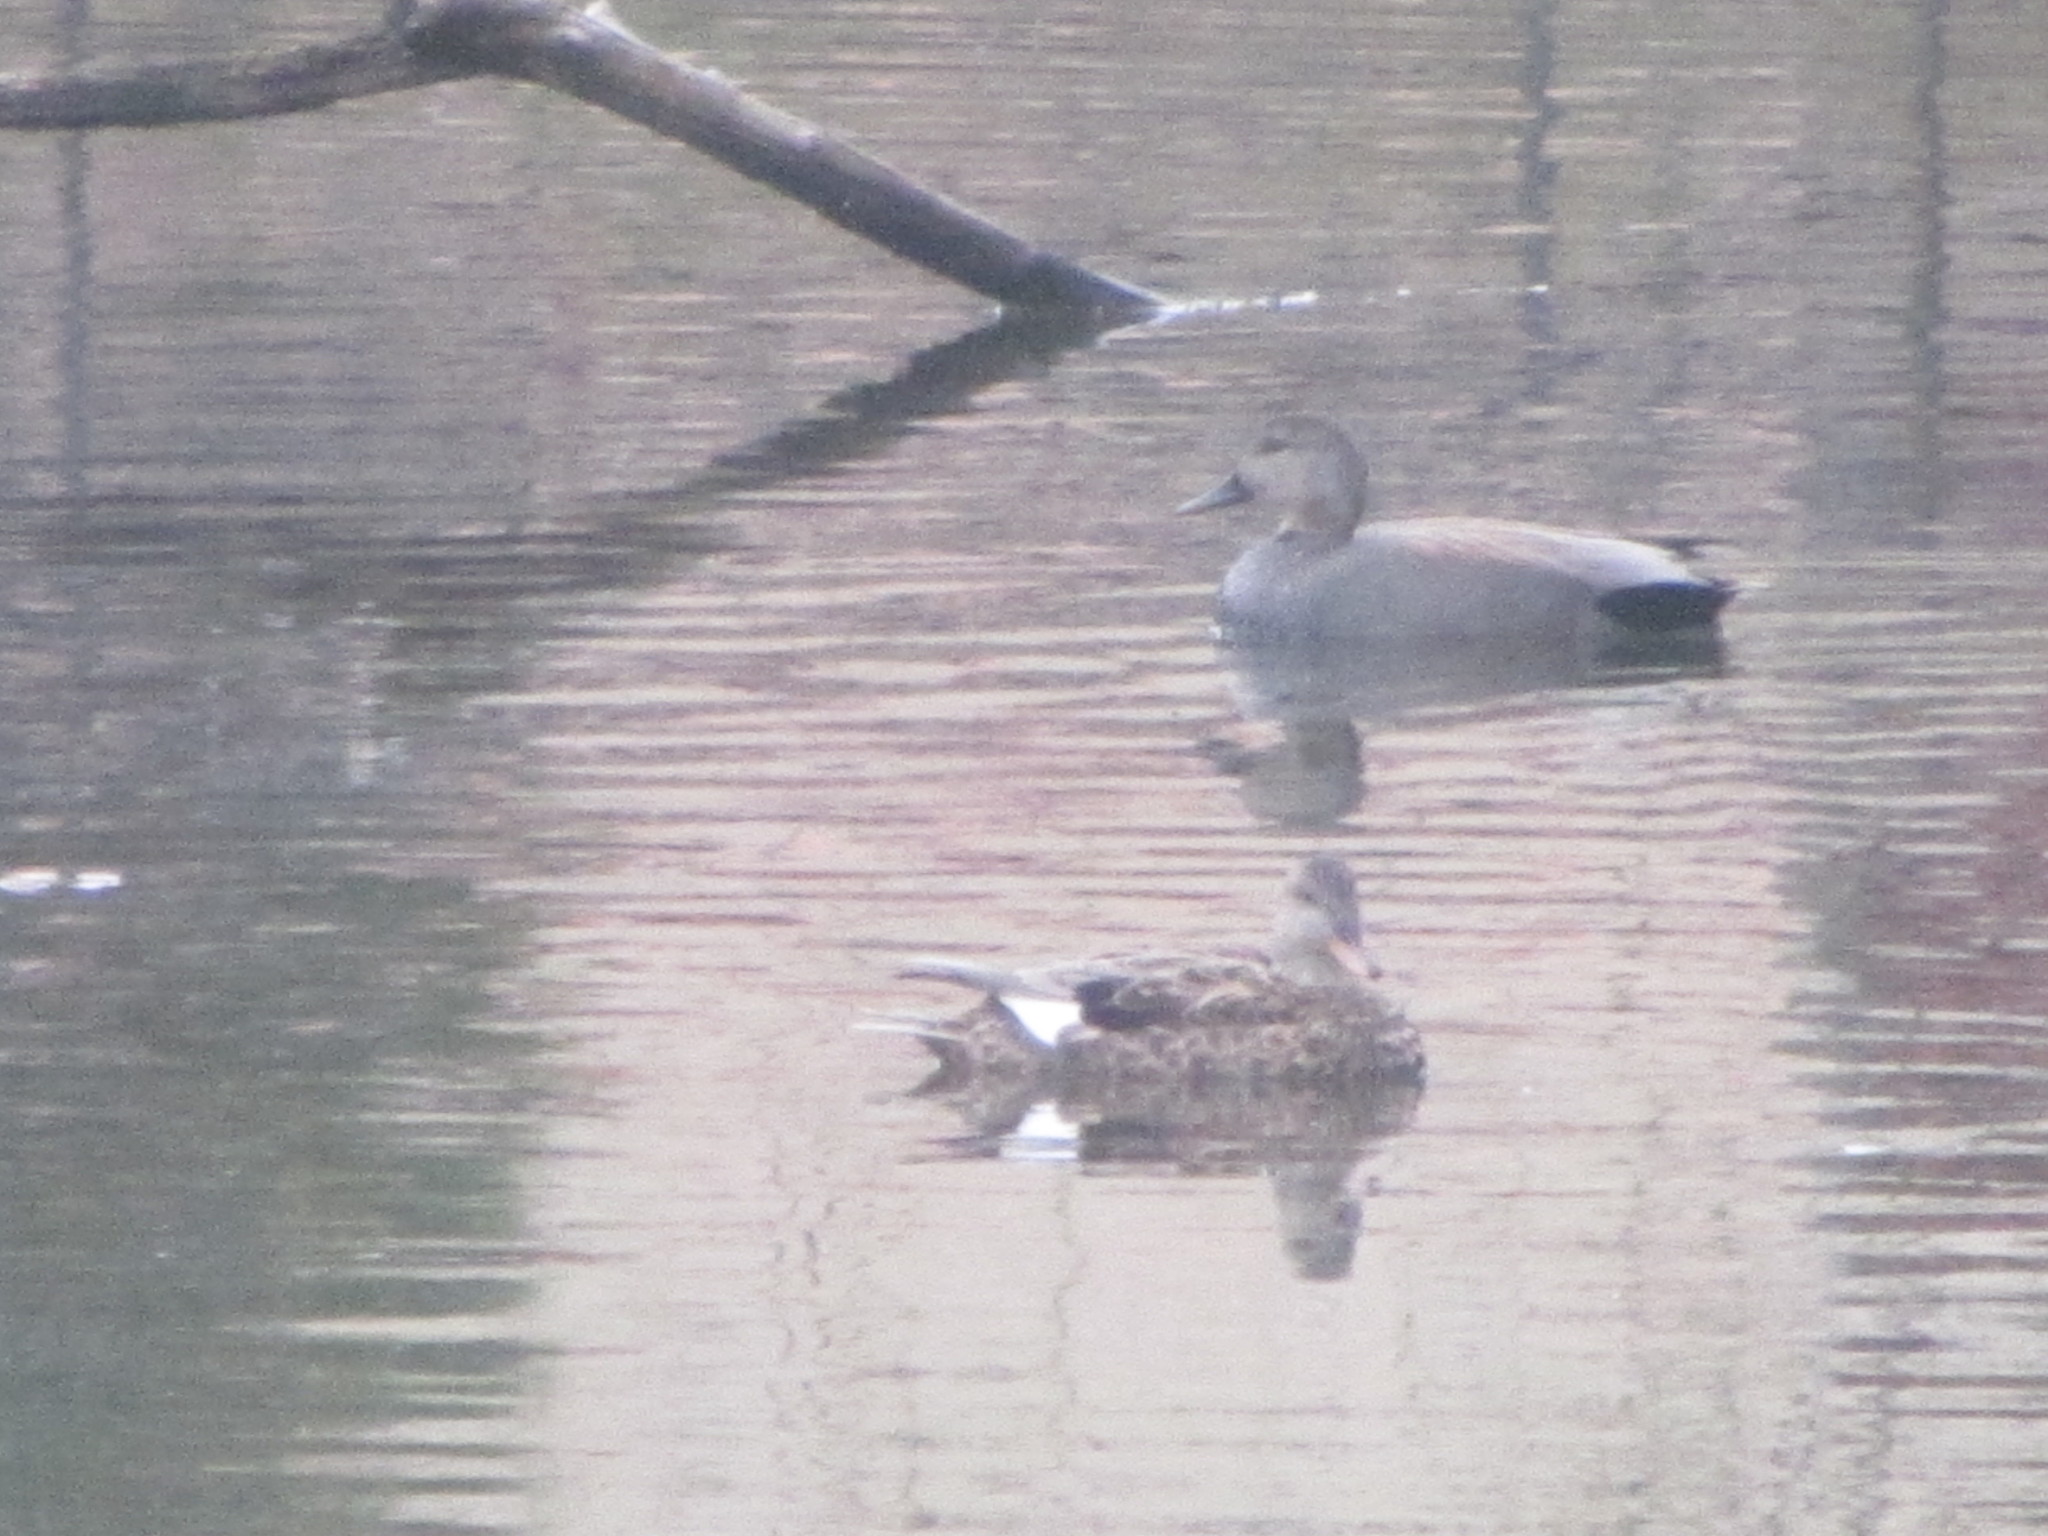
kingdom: Animalia
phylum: Chordata
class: Aves
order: Anseriformes
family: Anatidae
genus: Mareca
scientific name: Mareca strepera
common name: Gadwall
